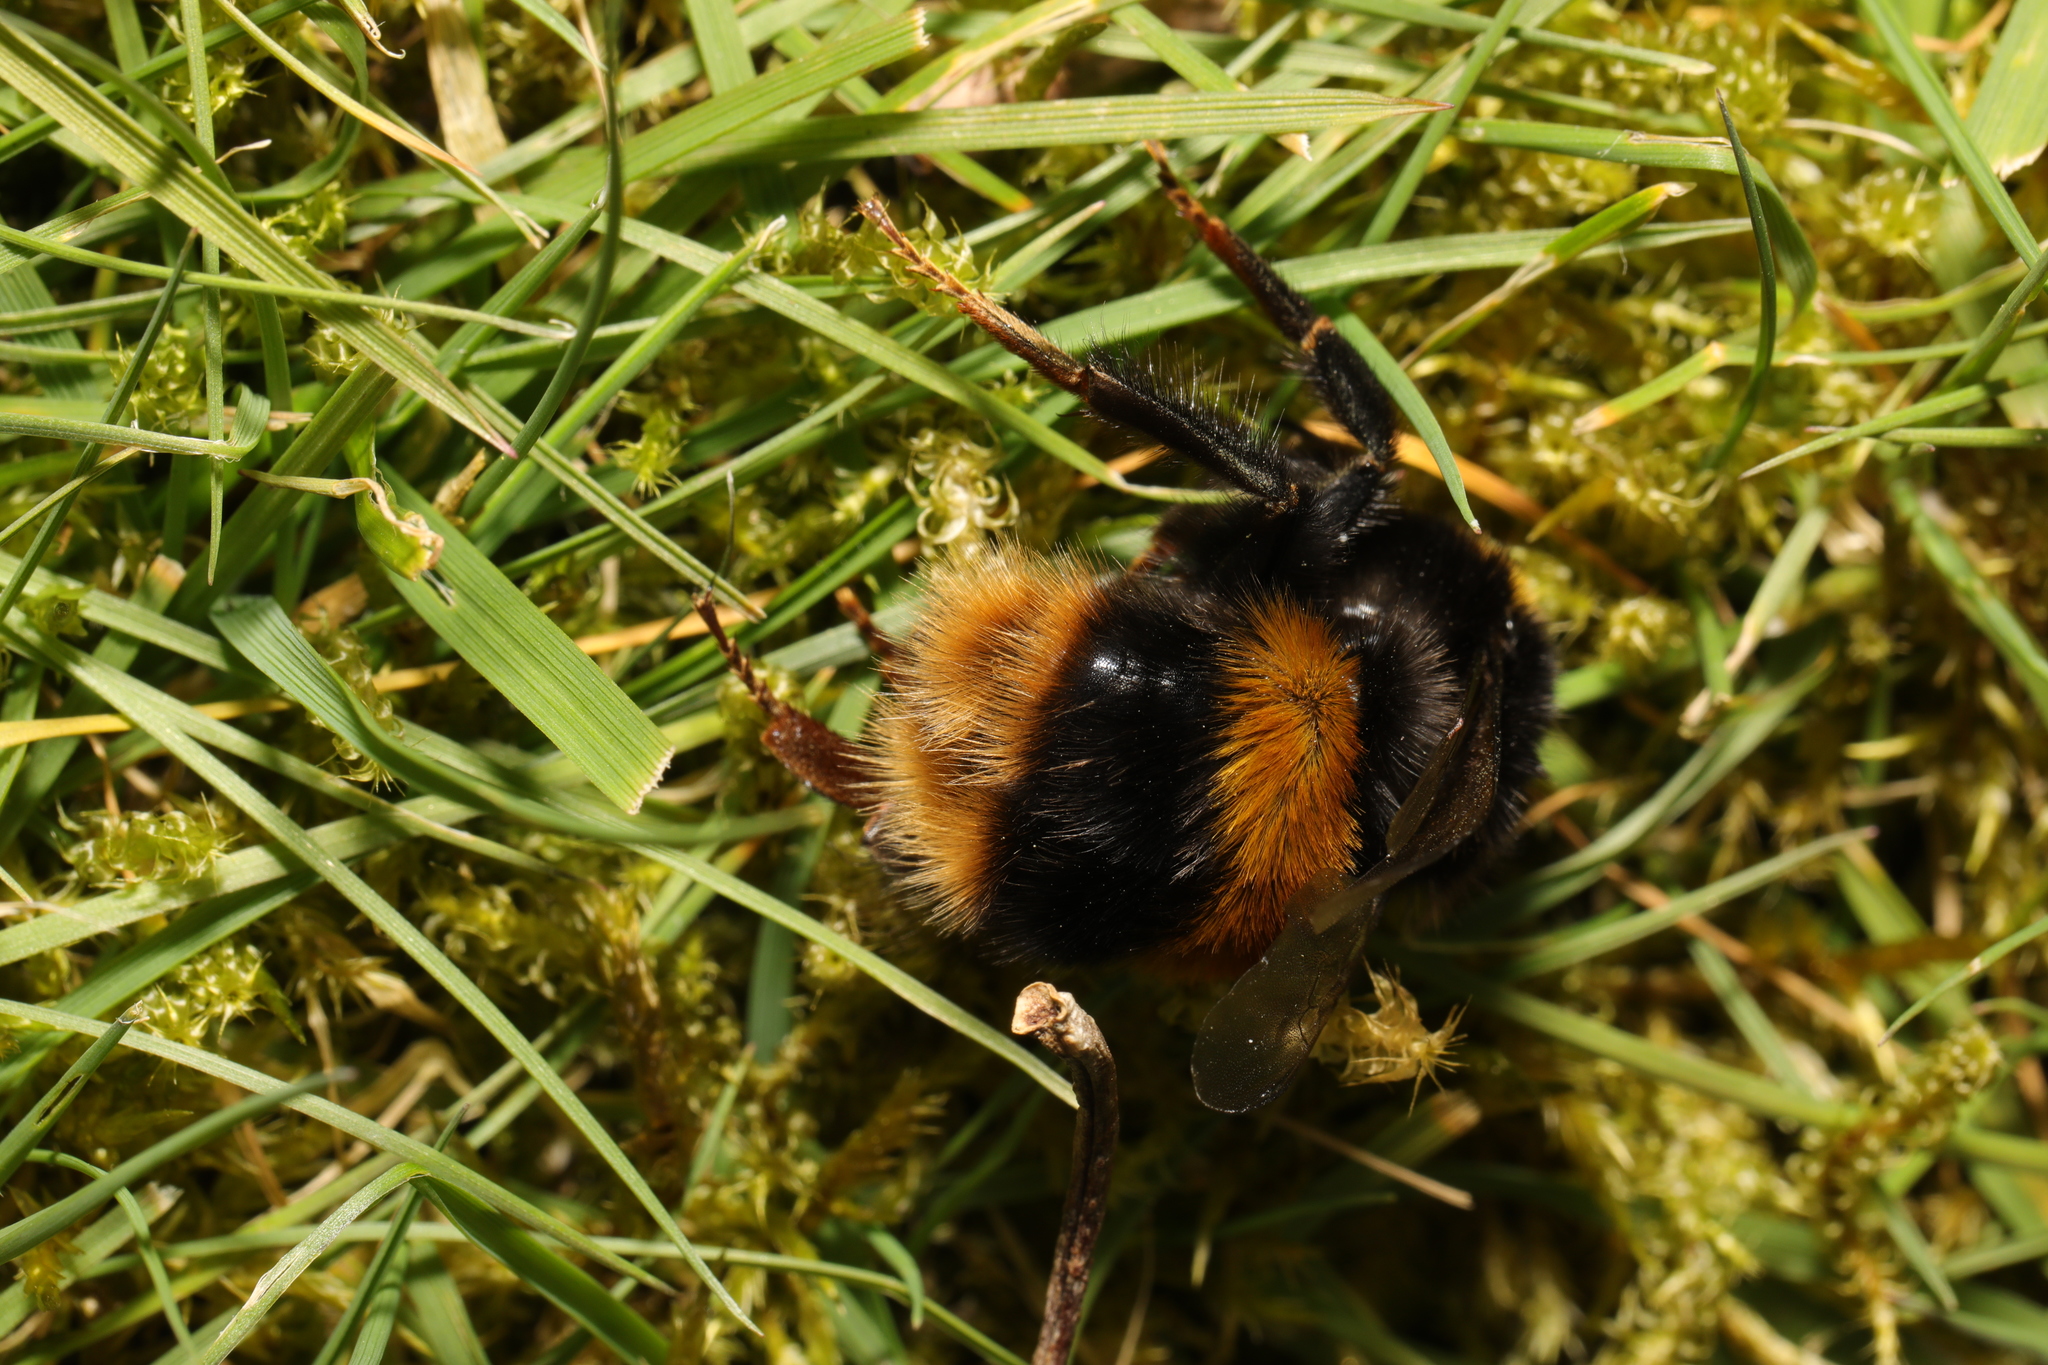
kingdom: Animalia
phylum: Arthropoda
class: Insecta
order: Hymenoptera
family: Apidae
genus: Bombus
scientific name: Bombus terrestris
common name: Buff-tailed bumblebee
